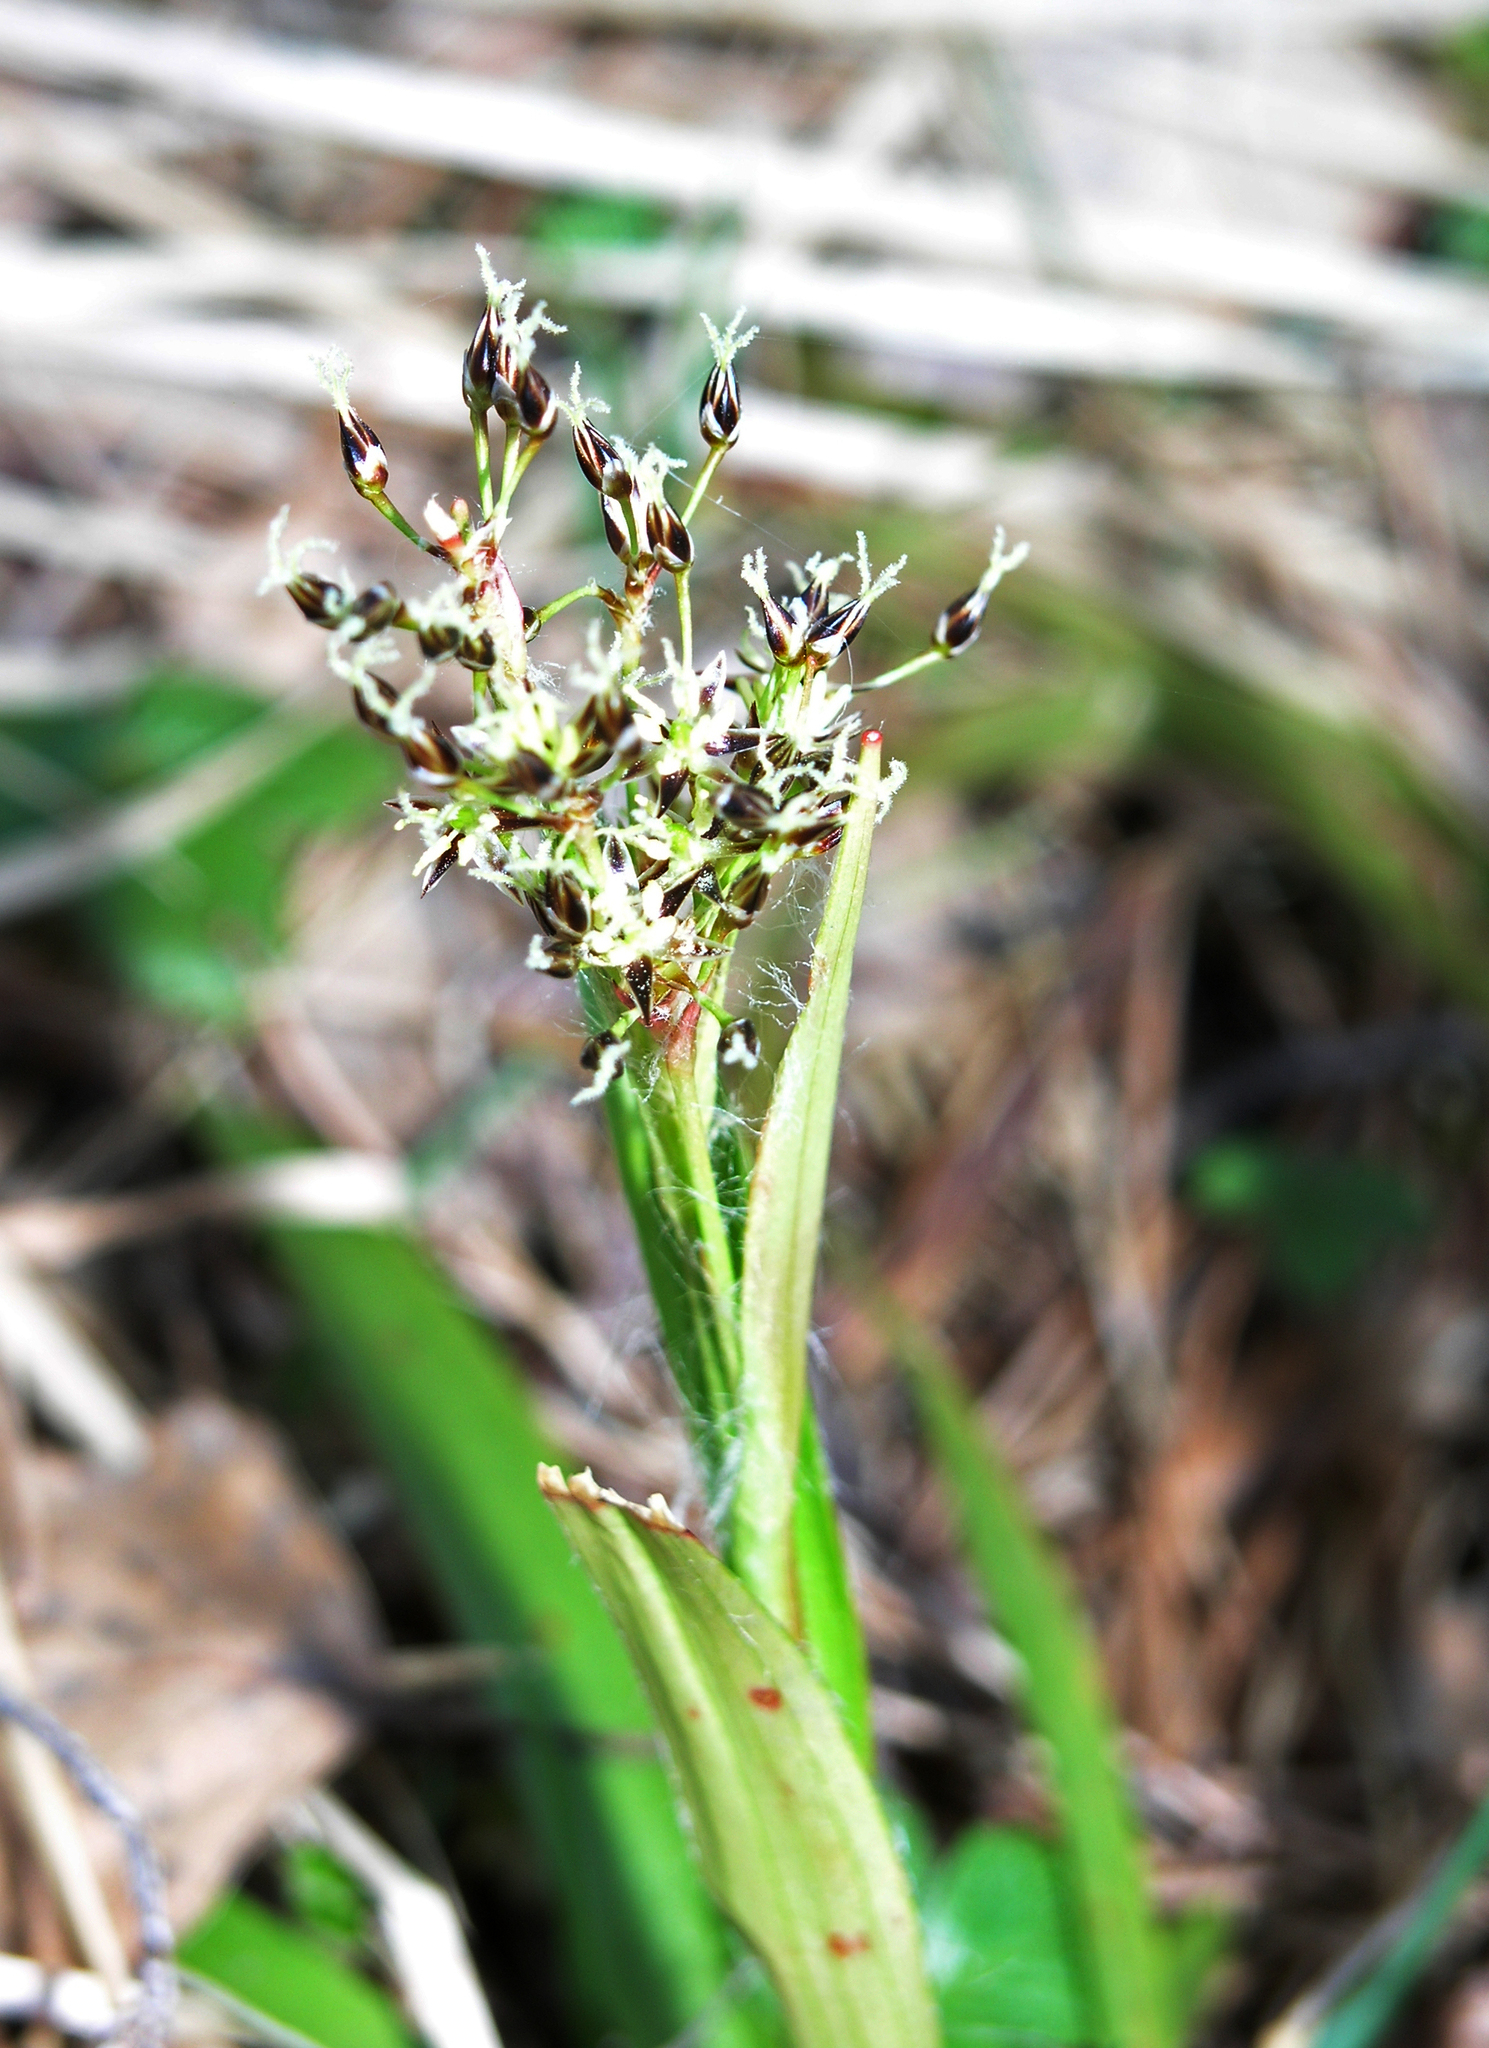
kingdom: Plantae
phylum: Tracheophyta
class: Liliopsida
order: Poales
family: Juncaceae
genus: Luzula
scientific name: Luzula pilosa
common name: Hairy wood-rush
